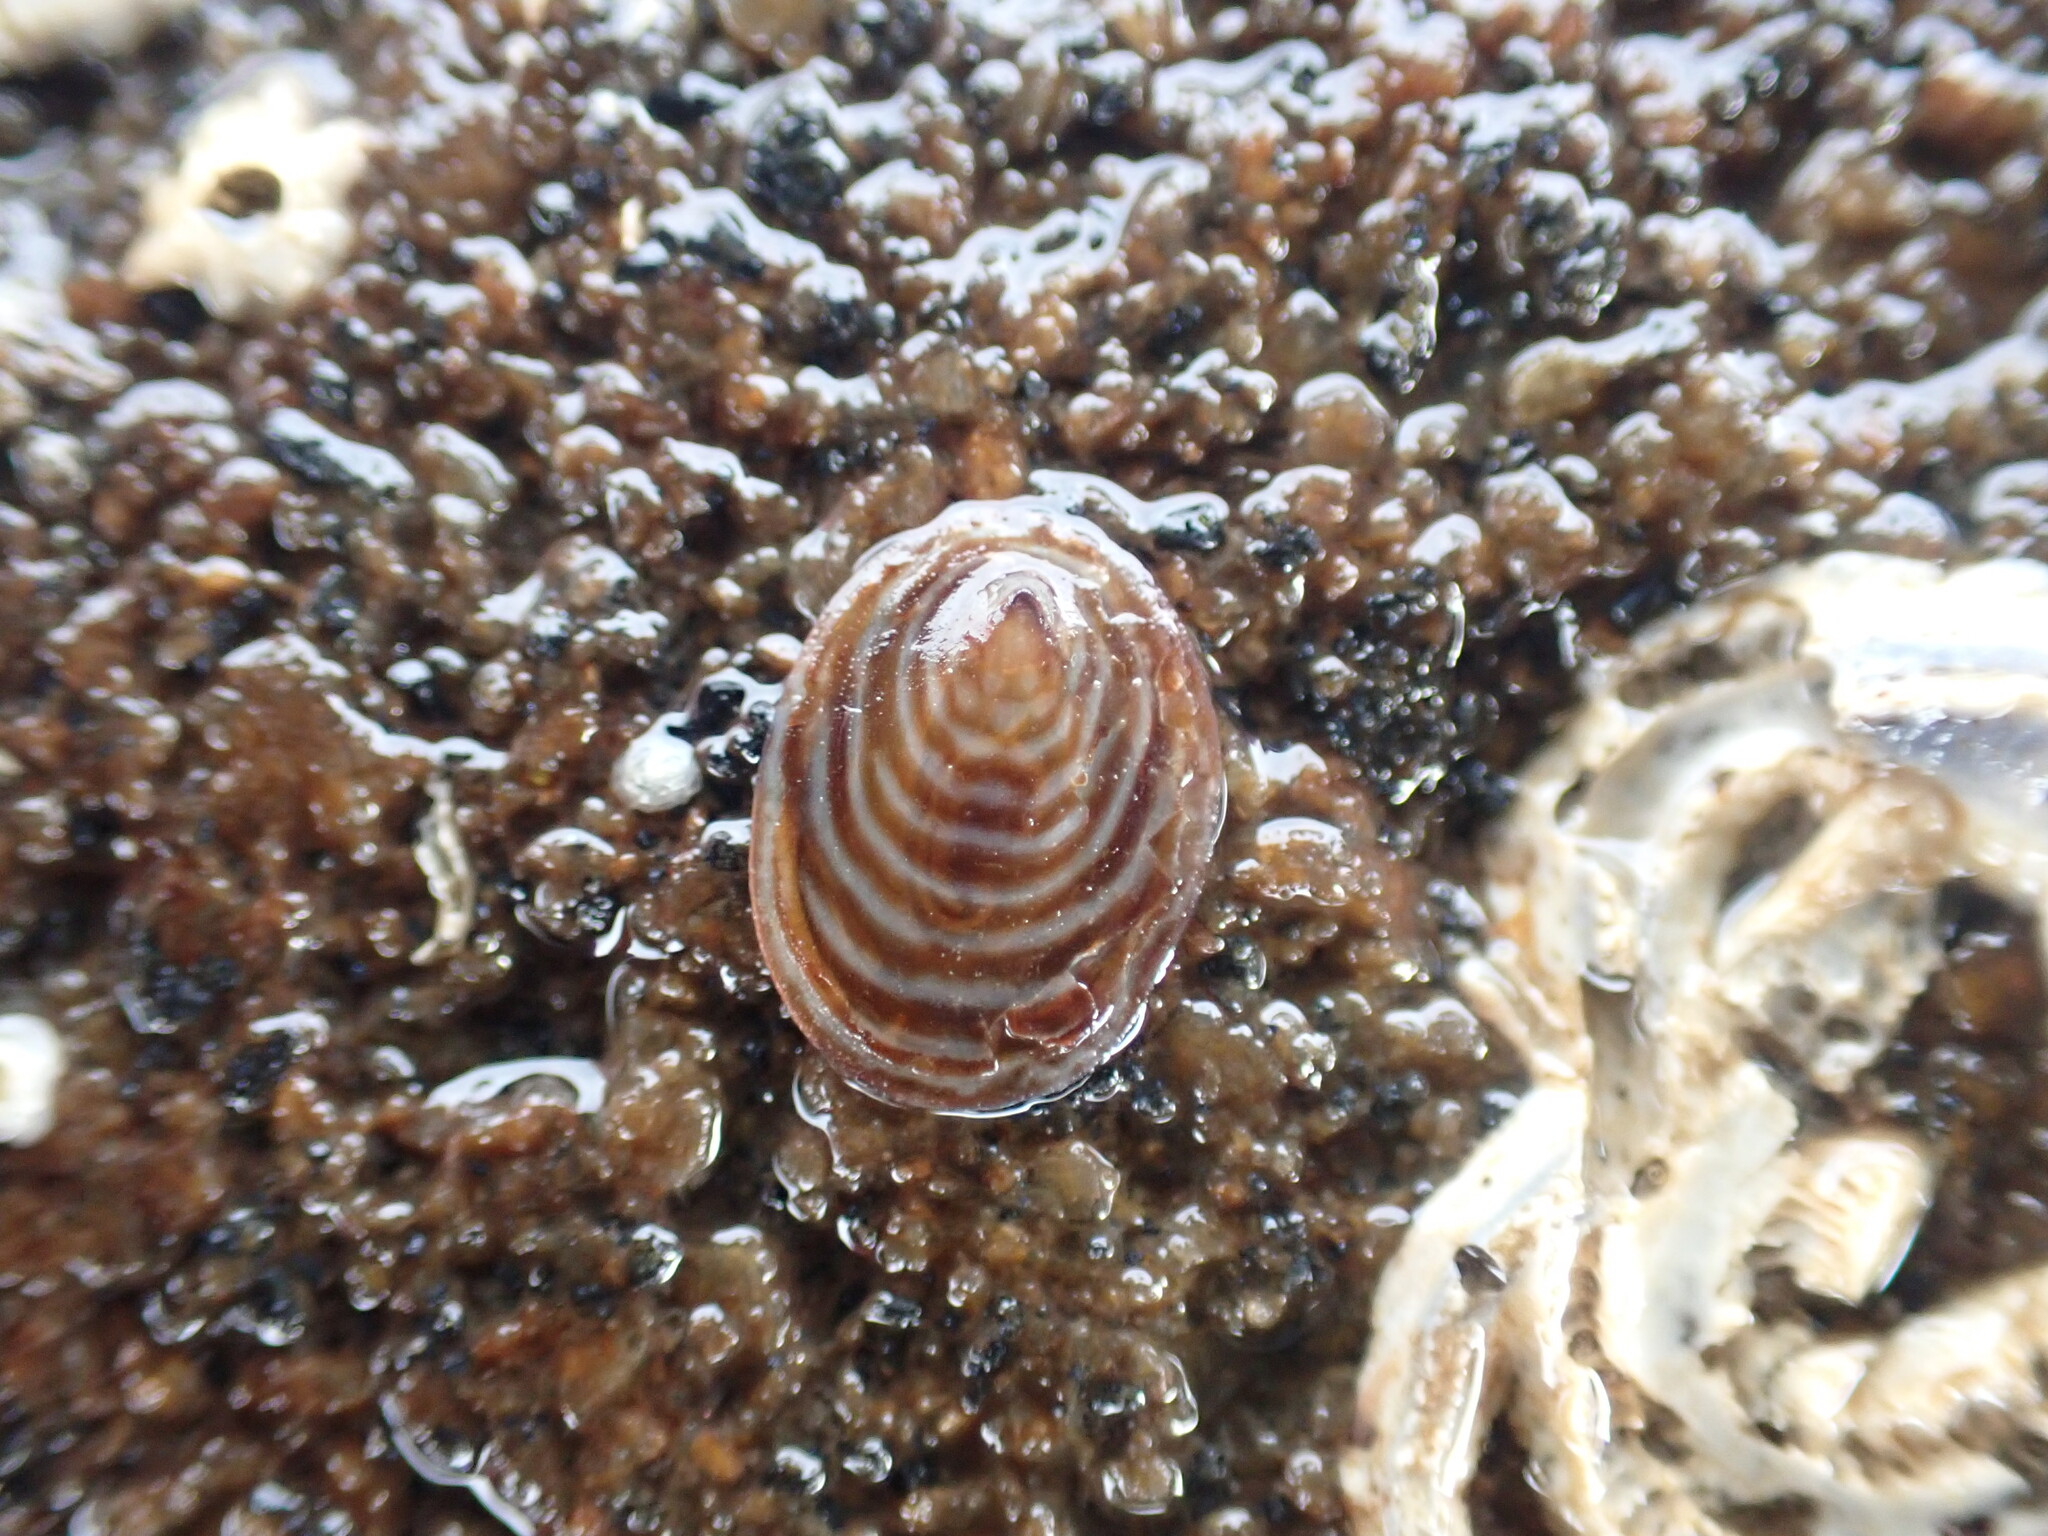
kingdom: Animalia
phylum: Mollusca
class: Gastropoda
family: Lottiidae
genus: Atalacmea
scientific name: Atalacmea fragilis
